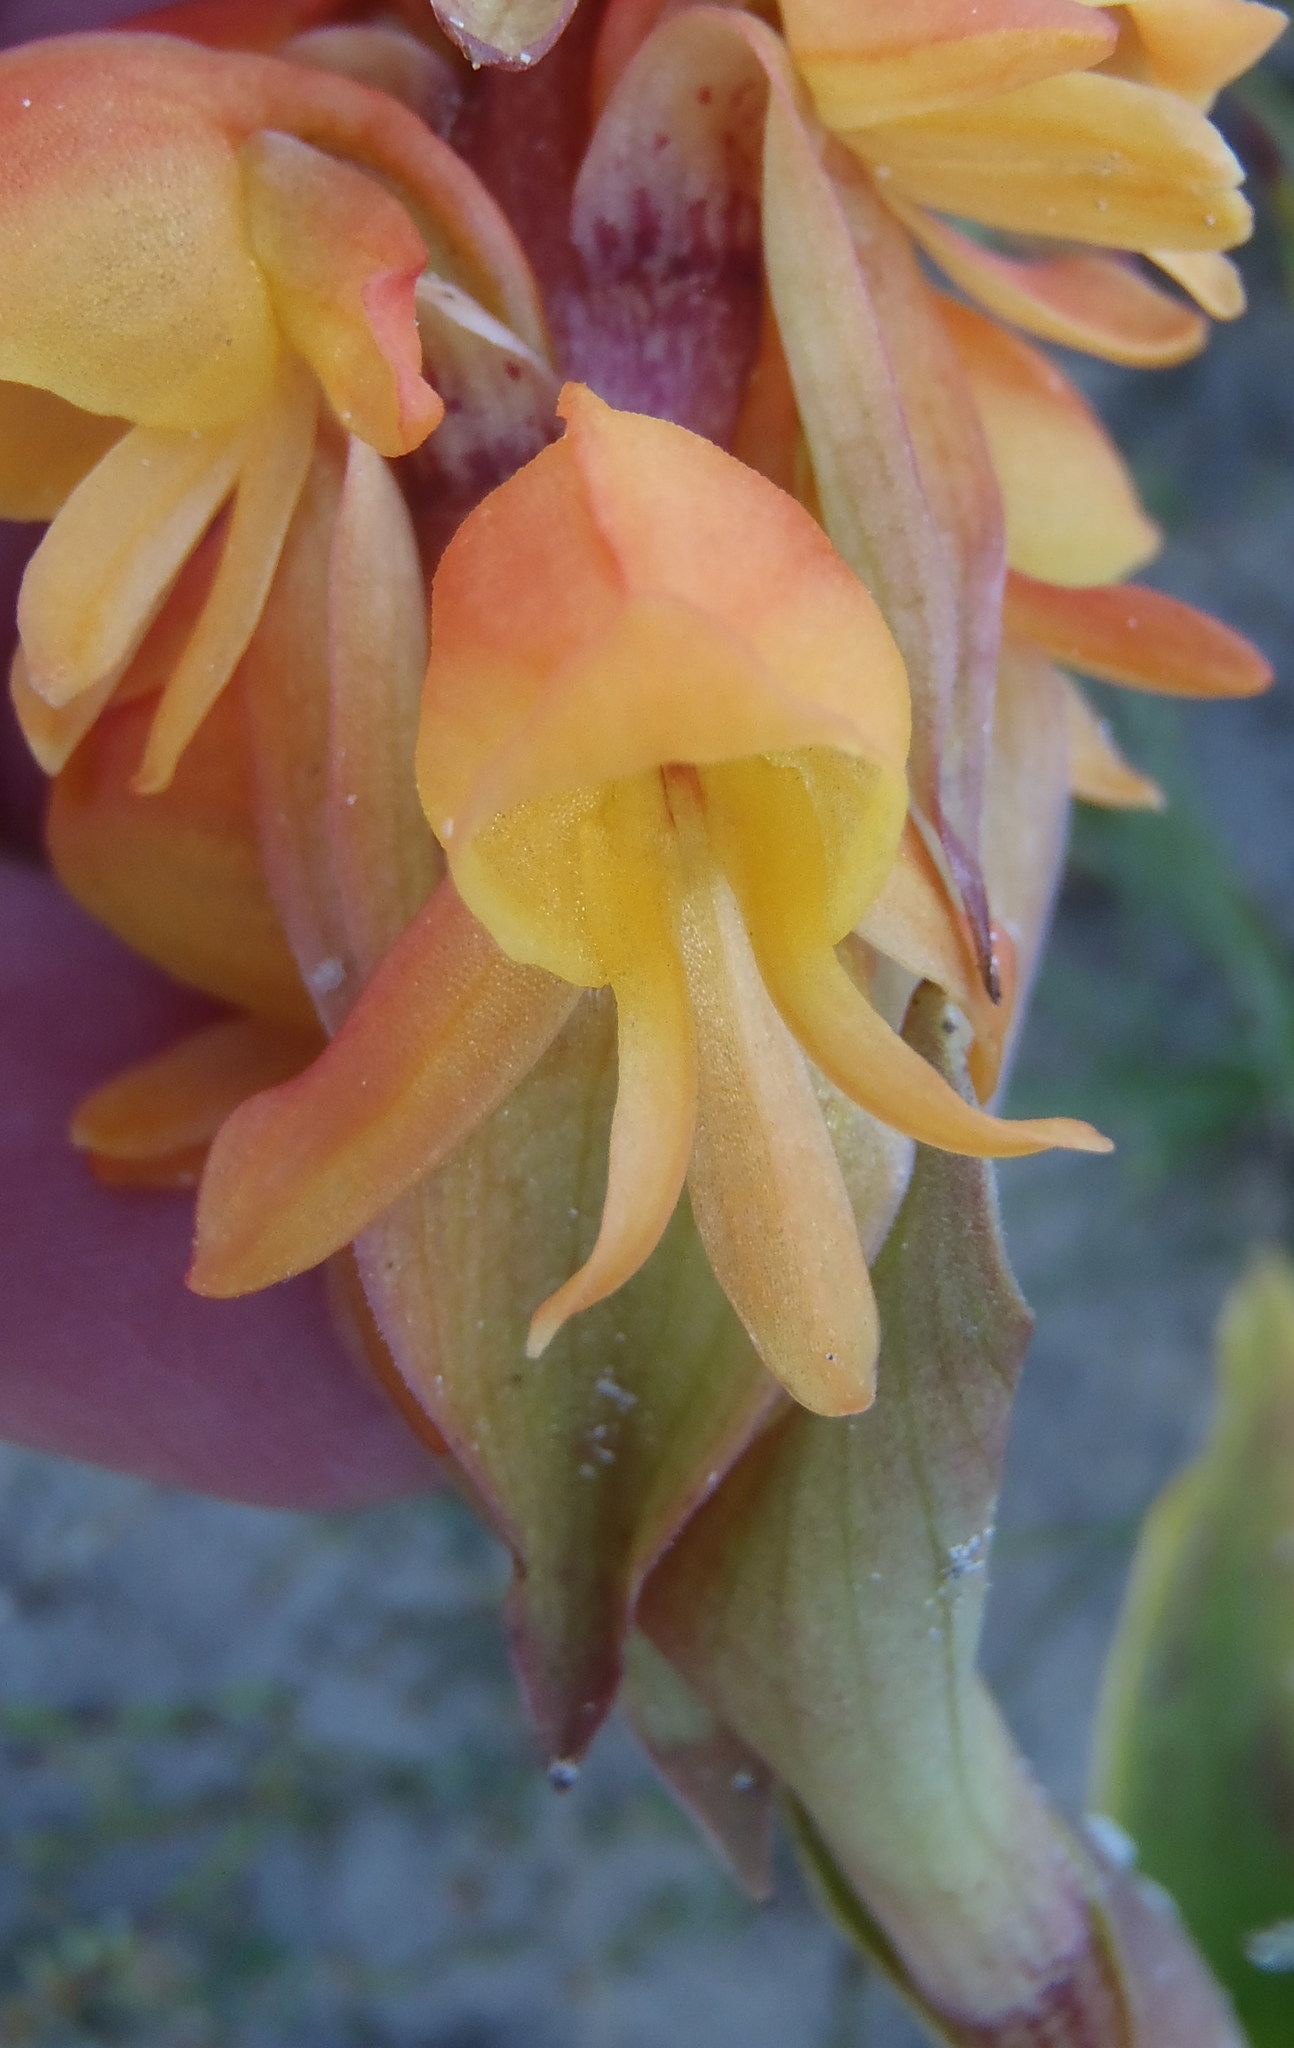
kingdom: Plantae
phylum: Tracheophyta
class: Liliopsida
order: Asparagales
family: Orchidaceae
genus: Satyrium
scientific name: Satyrium coriifolium
